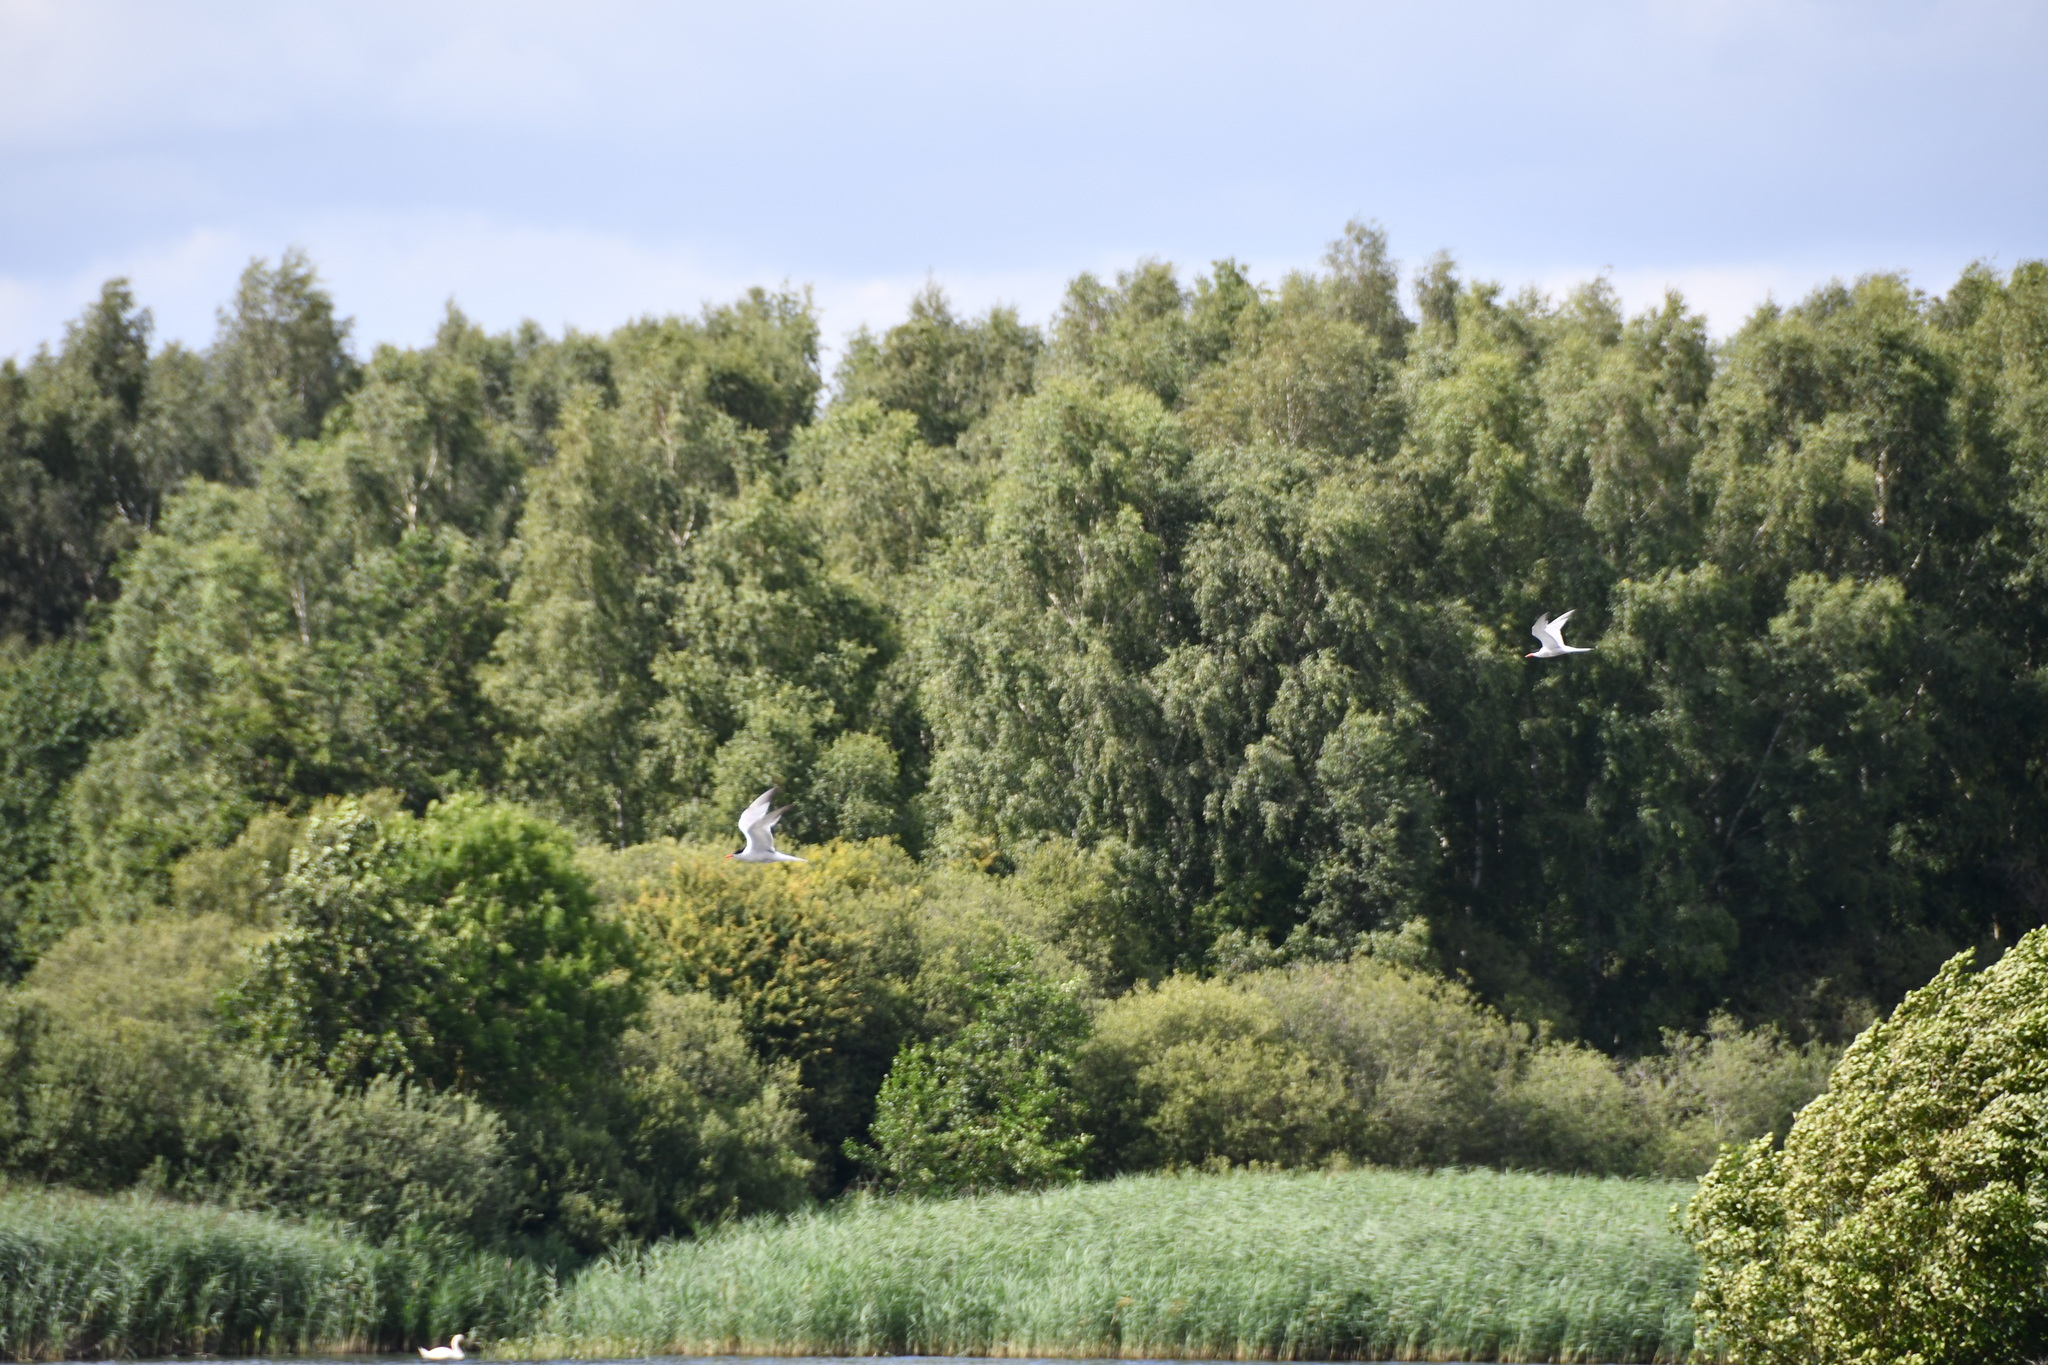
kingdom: Animalia
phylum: Chordata
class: Aves
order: Charadriiformes
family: Laridae
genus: Sterna
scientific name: Sterna hirundo
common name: Common tern
